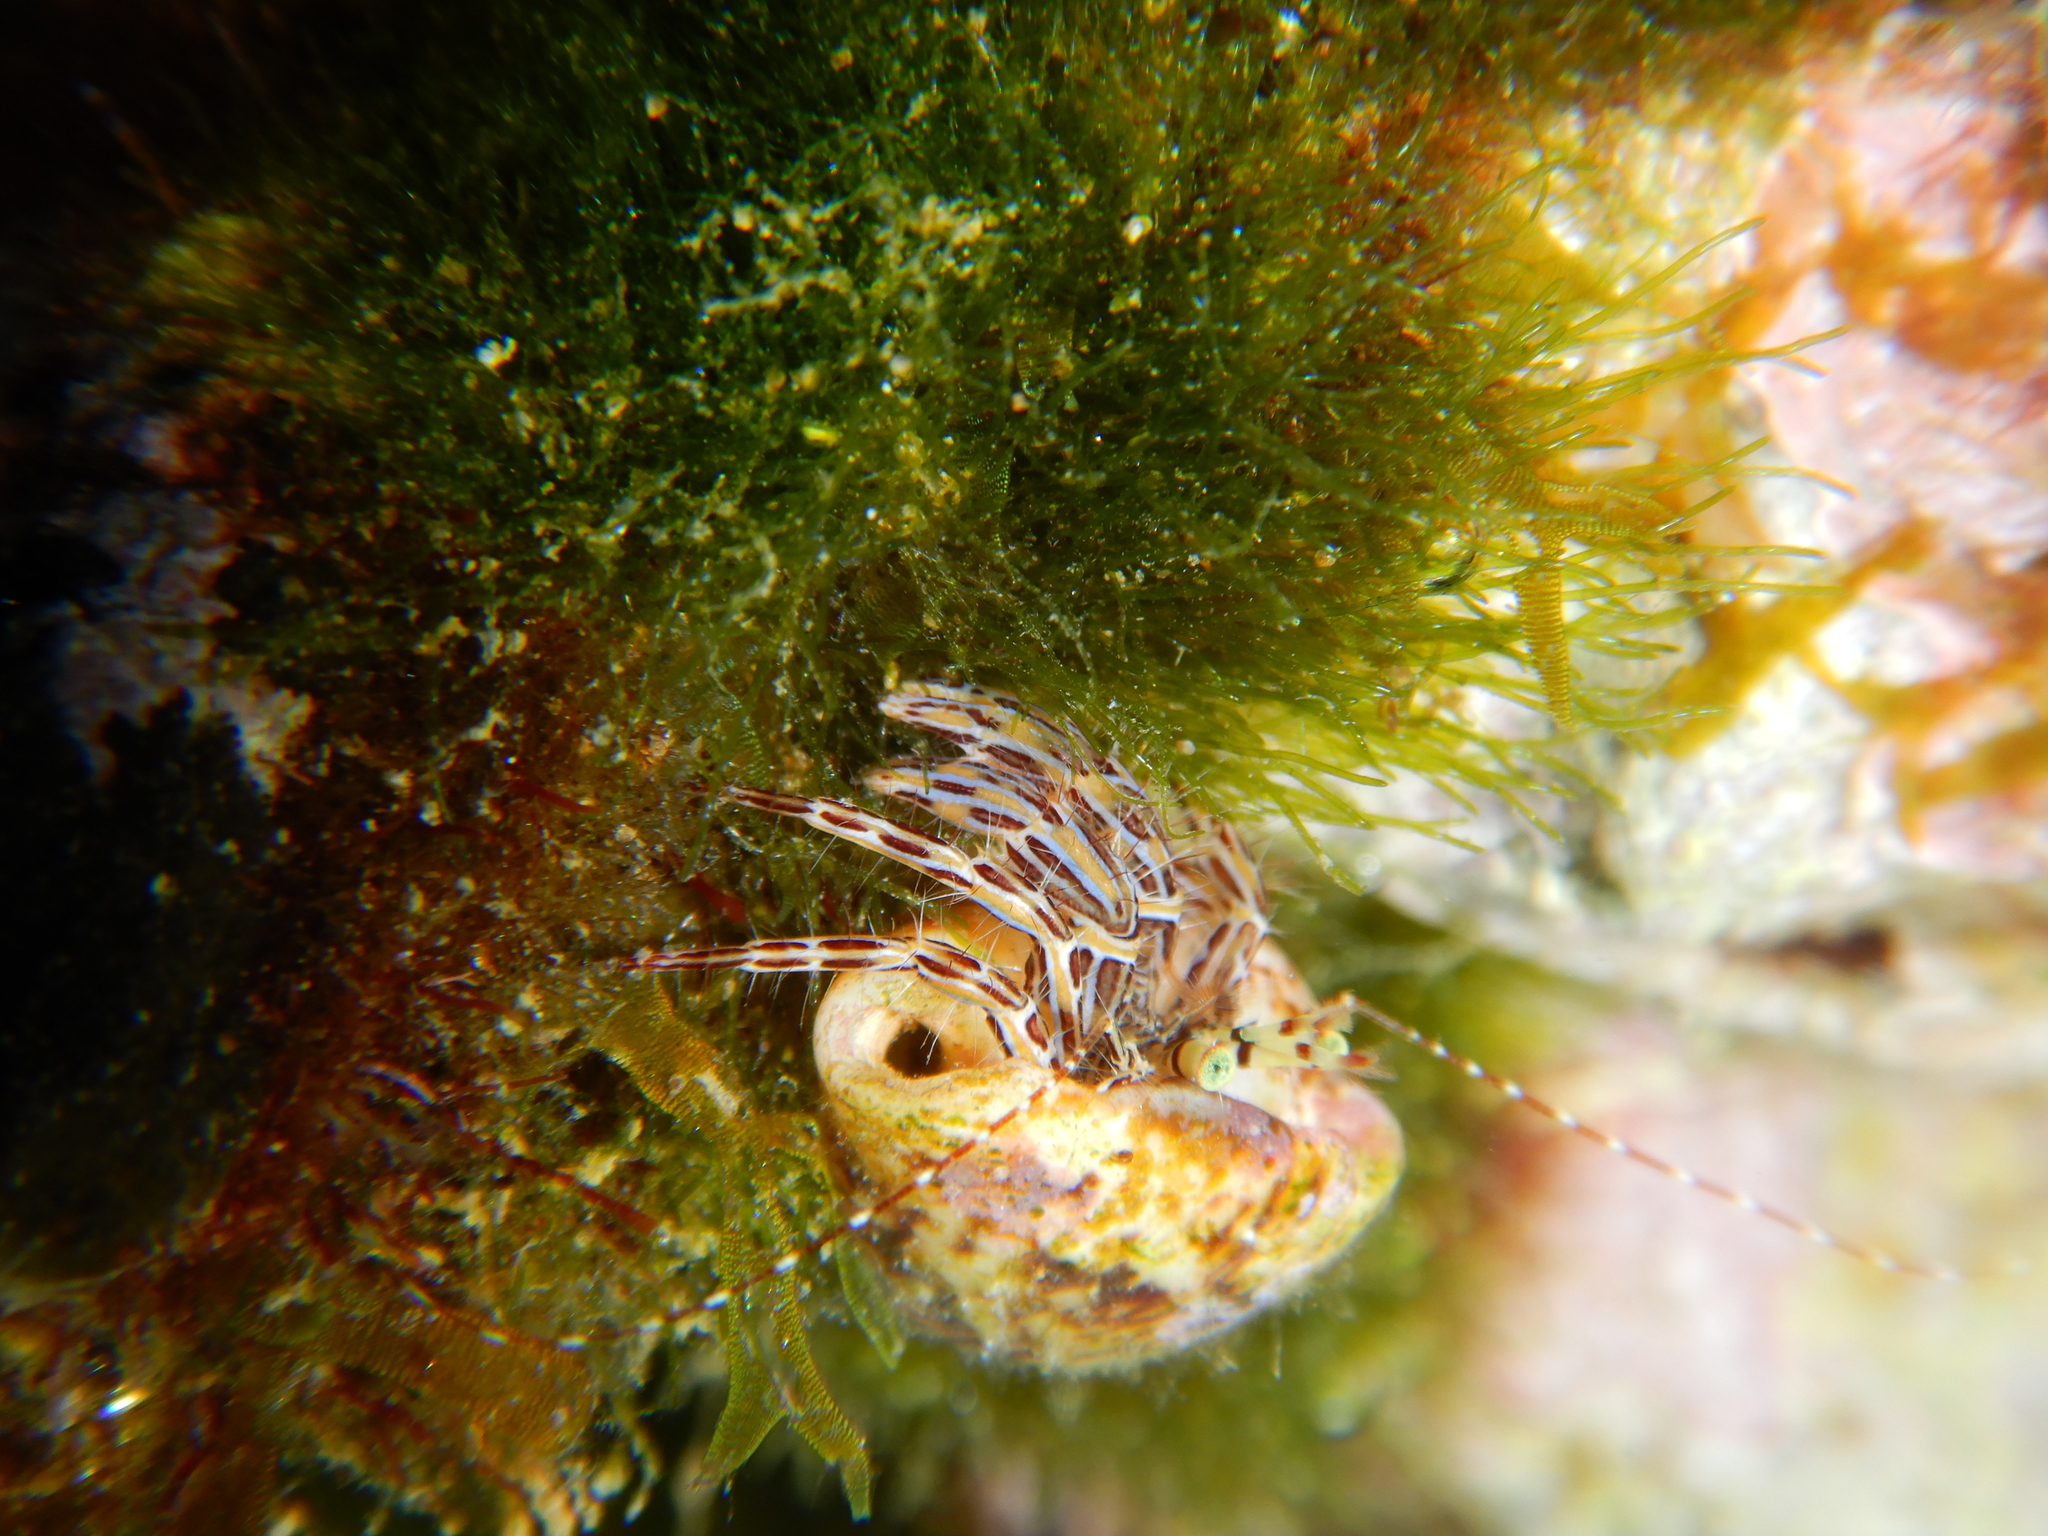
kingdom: Animalia
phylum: Arthropoda
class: Malacostraca
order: Decapoda
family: Paguridae
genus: Pagurus
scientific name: Pagurus anachoretus
